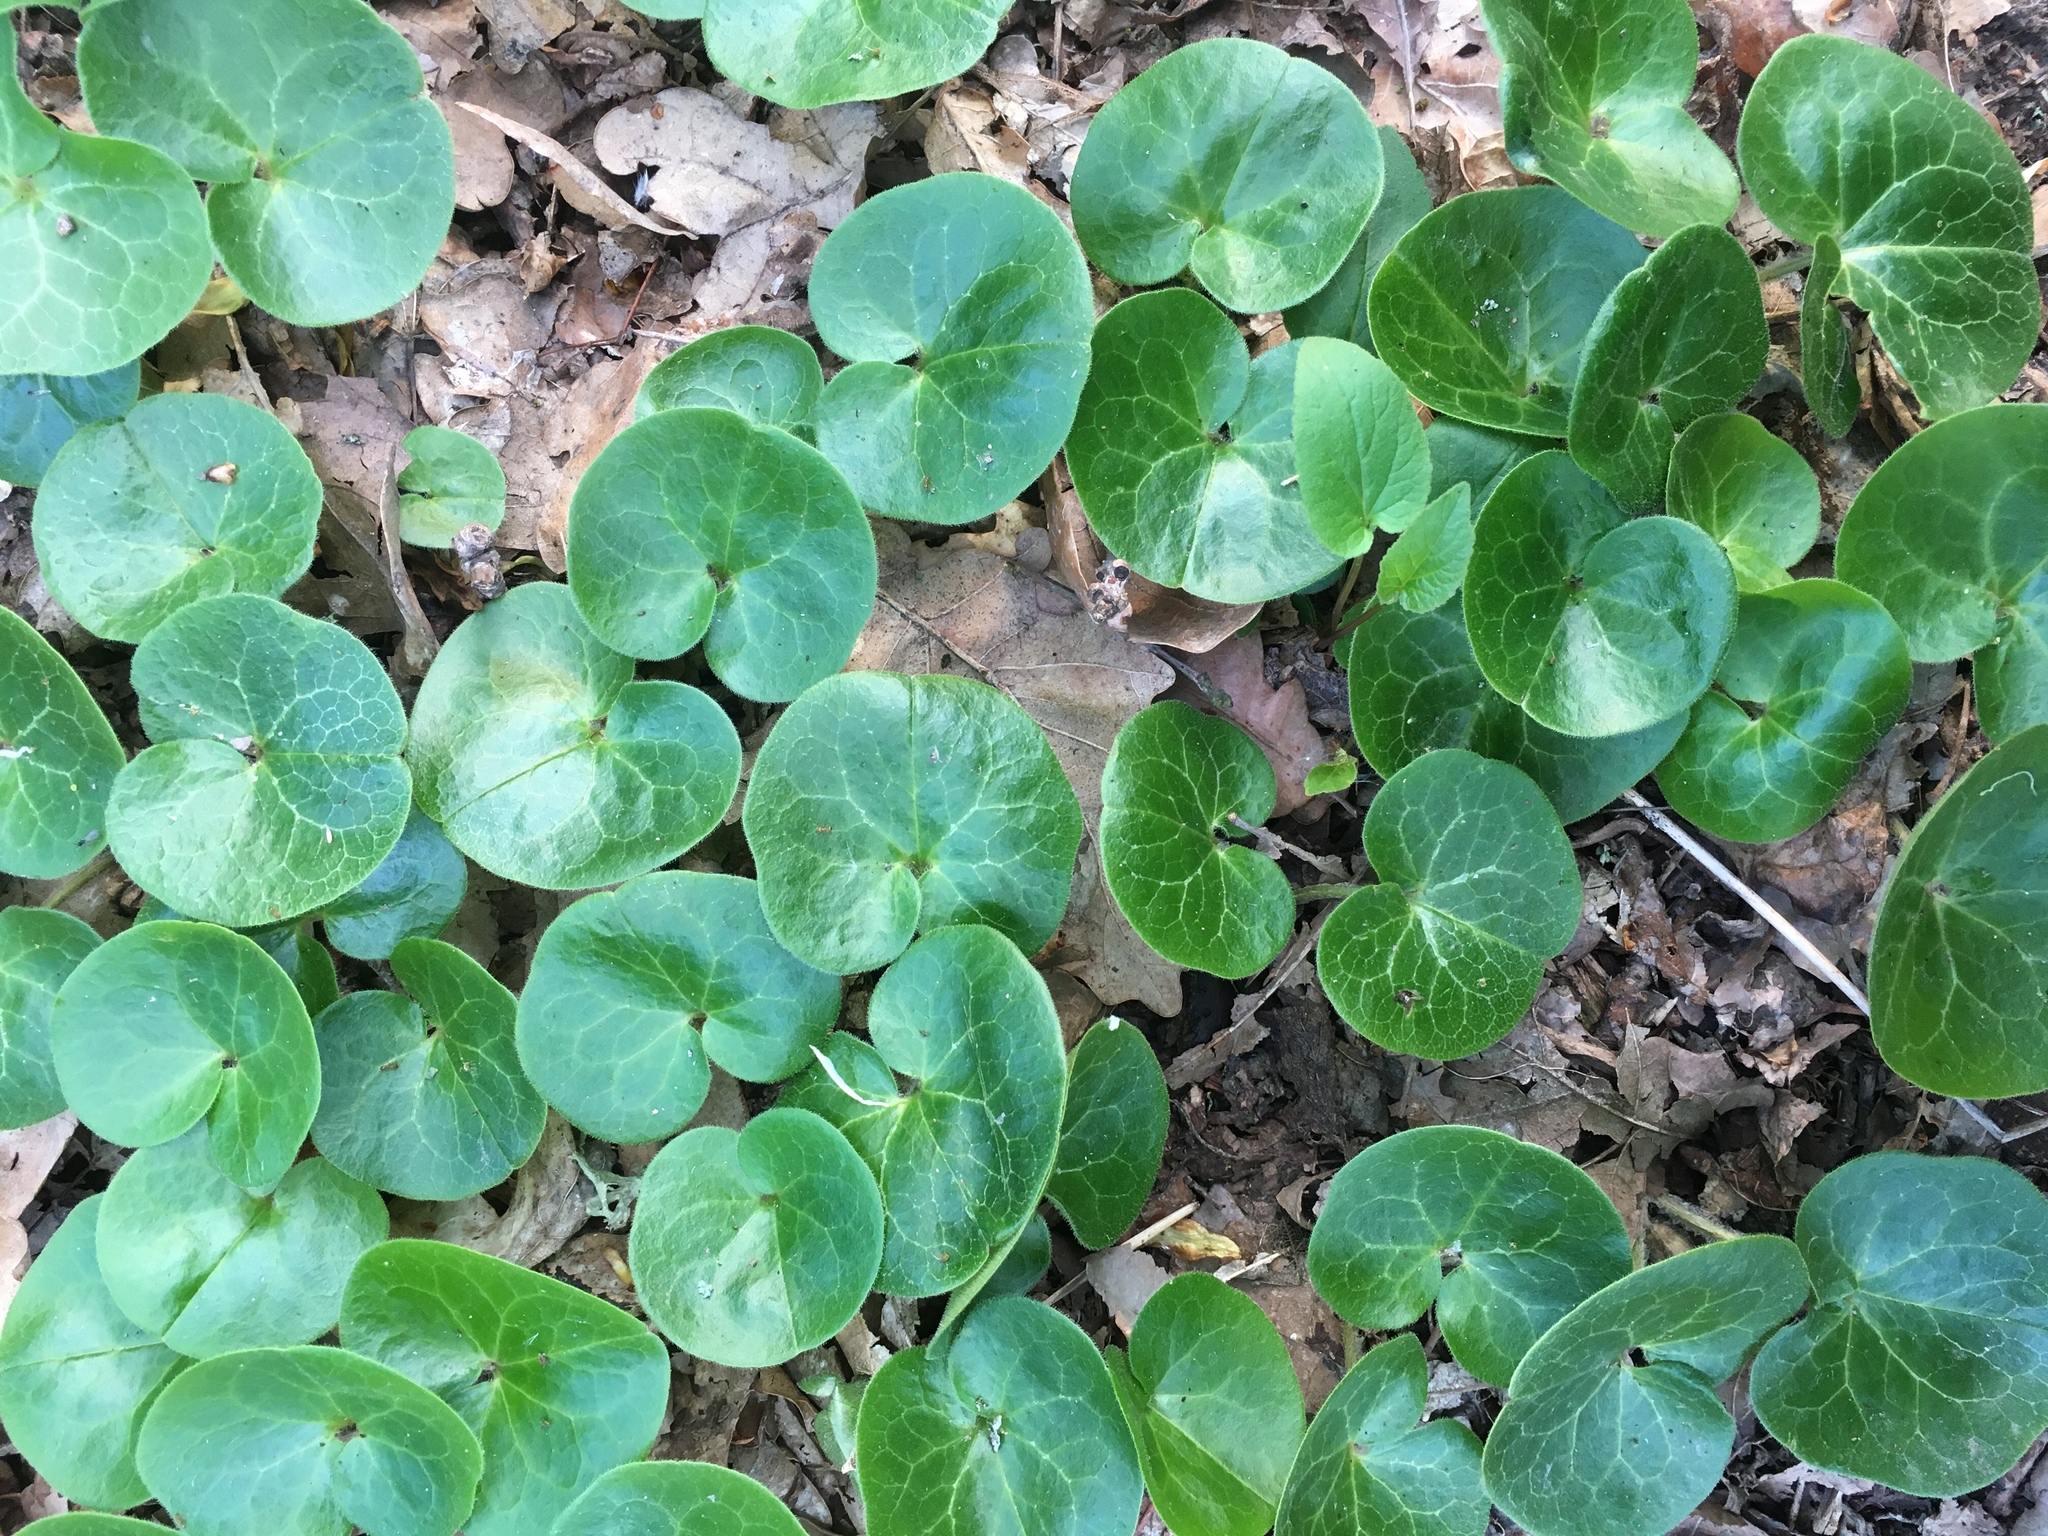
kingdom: Plantae
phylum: Tracheophyta
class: Magnoliopsida
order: Piperales
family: Aristolochiaceae
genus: Asarum
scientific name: Asarum europaeum
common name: Asarabacca
